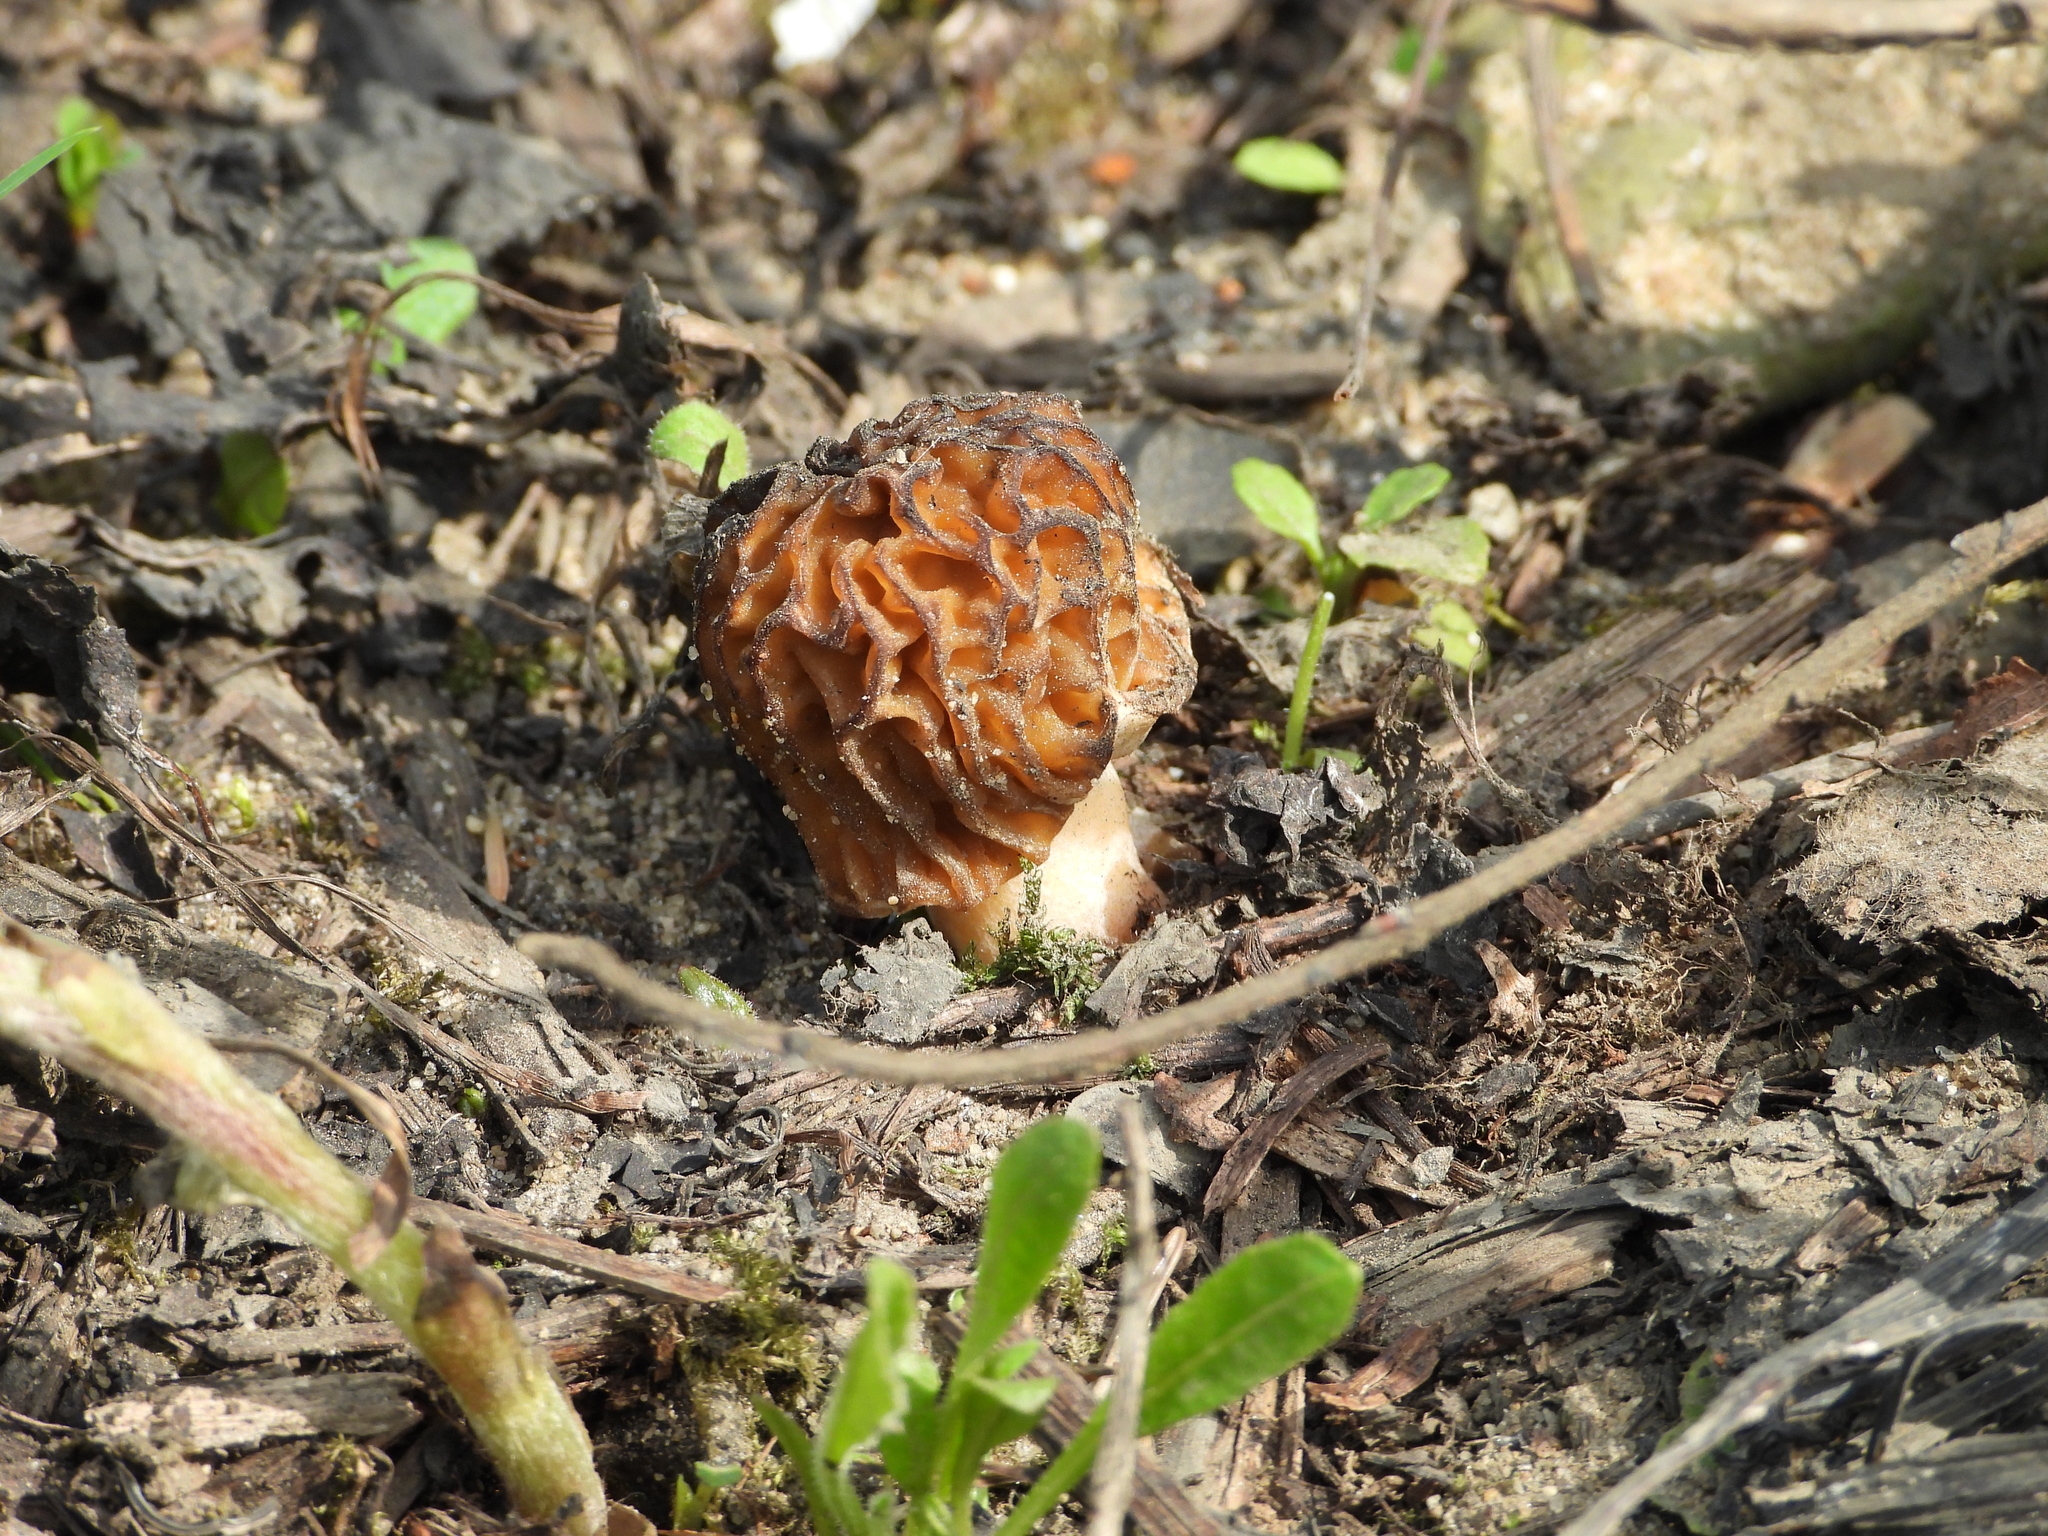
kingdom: Fungi
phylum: Ascomycota
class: Pezizomycetes
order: Pezizales
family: Morchellaceae
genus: Verpa
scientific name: Verpa bohemica
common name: Wrinkled thimble morel
